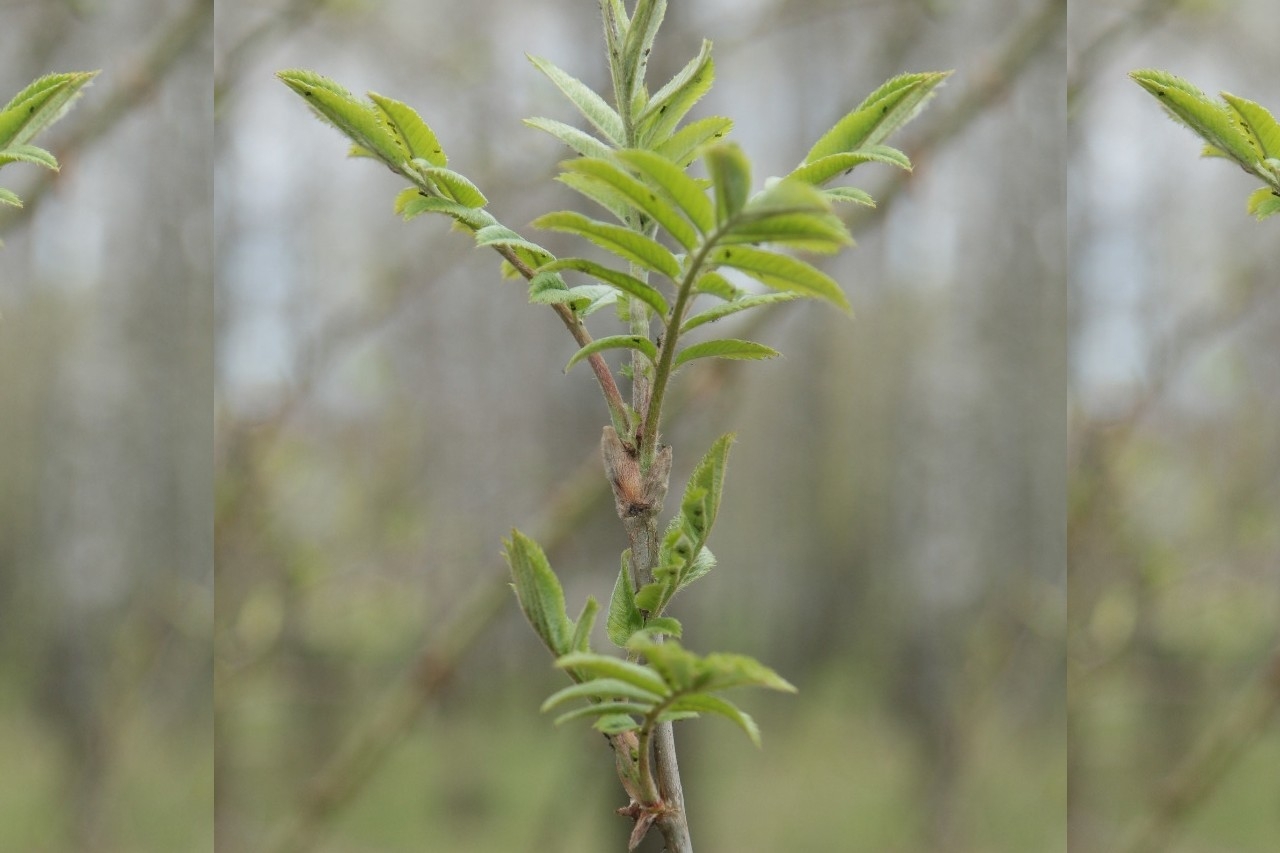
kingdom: Plantae
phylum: Tracheophyta
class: Magnoliopsida
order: Rosales
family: Rosaceae
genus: Sorbus
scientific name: Sorbus aucuparia
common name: Rowan
